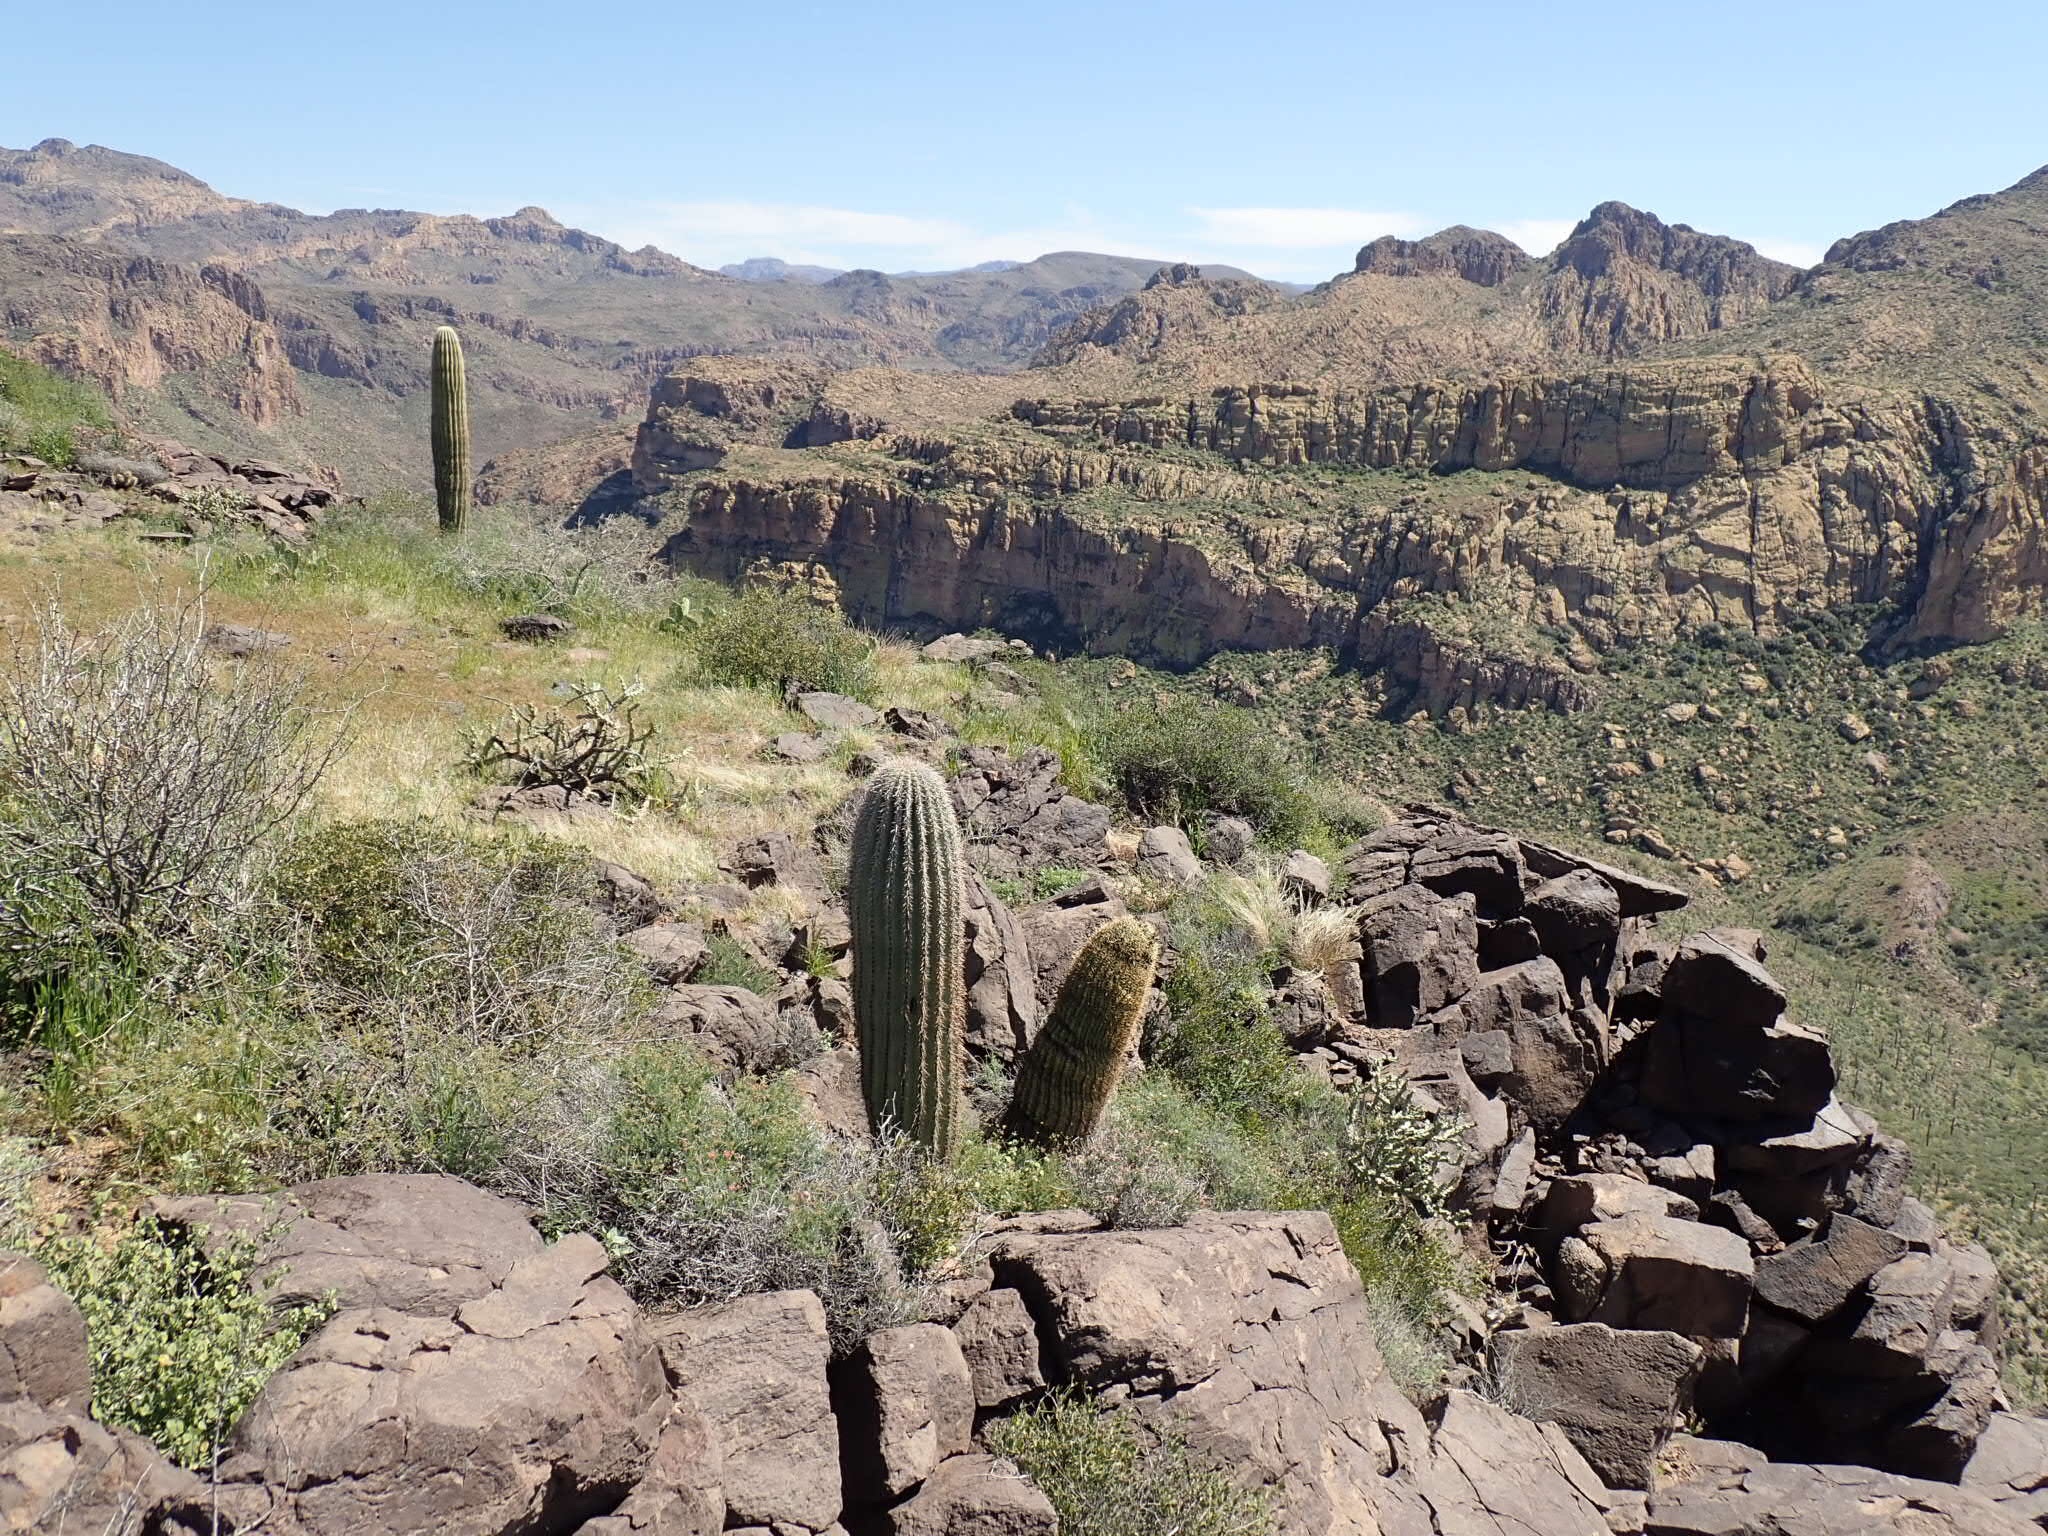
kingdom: Plantae
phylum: Tracheophyta
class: Magnoliopsida
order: Caryophyllales
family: Cactaceae
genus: Carnegiea
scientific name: Carnegiea gigantea
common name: Saguaro
